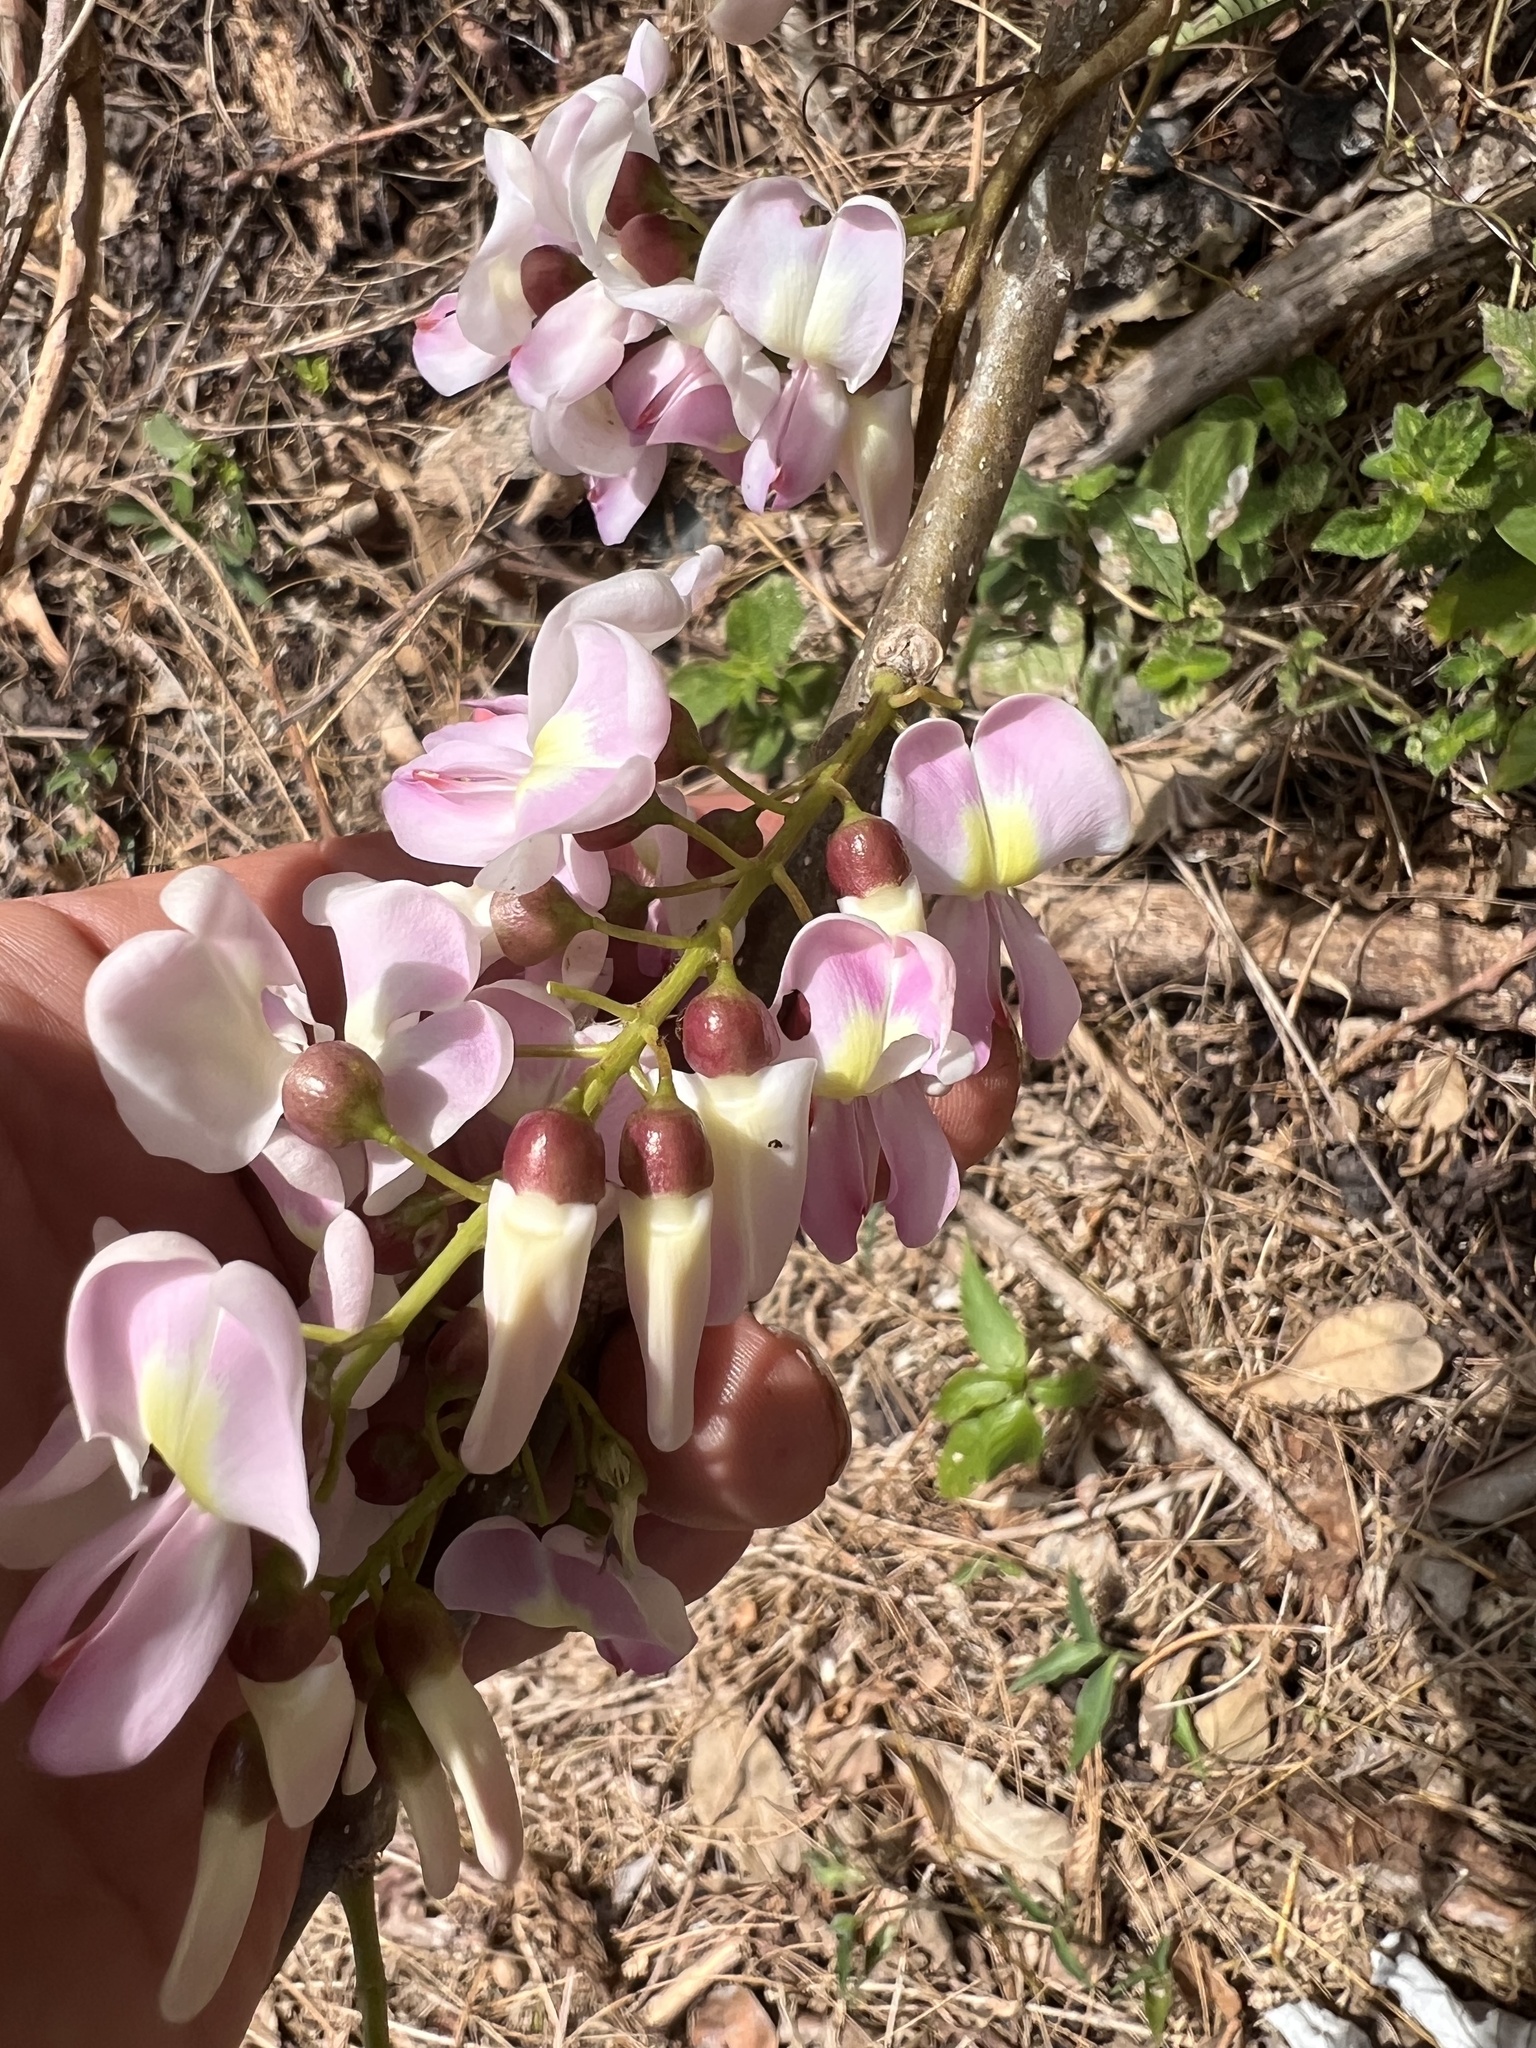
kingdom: Plantae
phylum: Tracheophyta
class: Magnoliopsida
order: Fabales
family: Fabaceae
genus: Gliricidia
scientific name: Gliricidia sepium
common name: Quickstick
